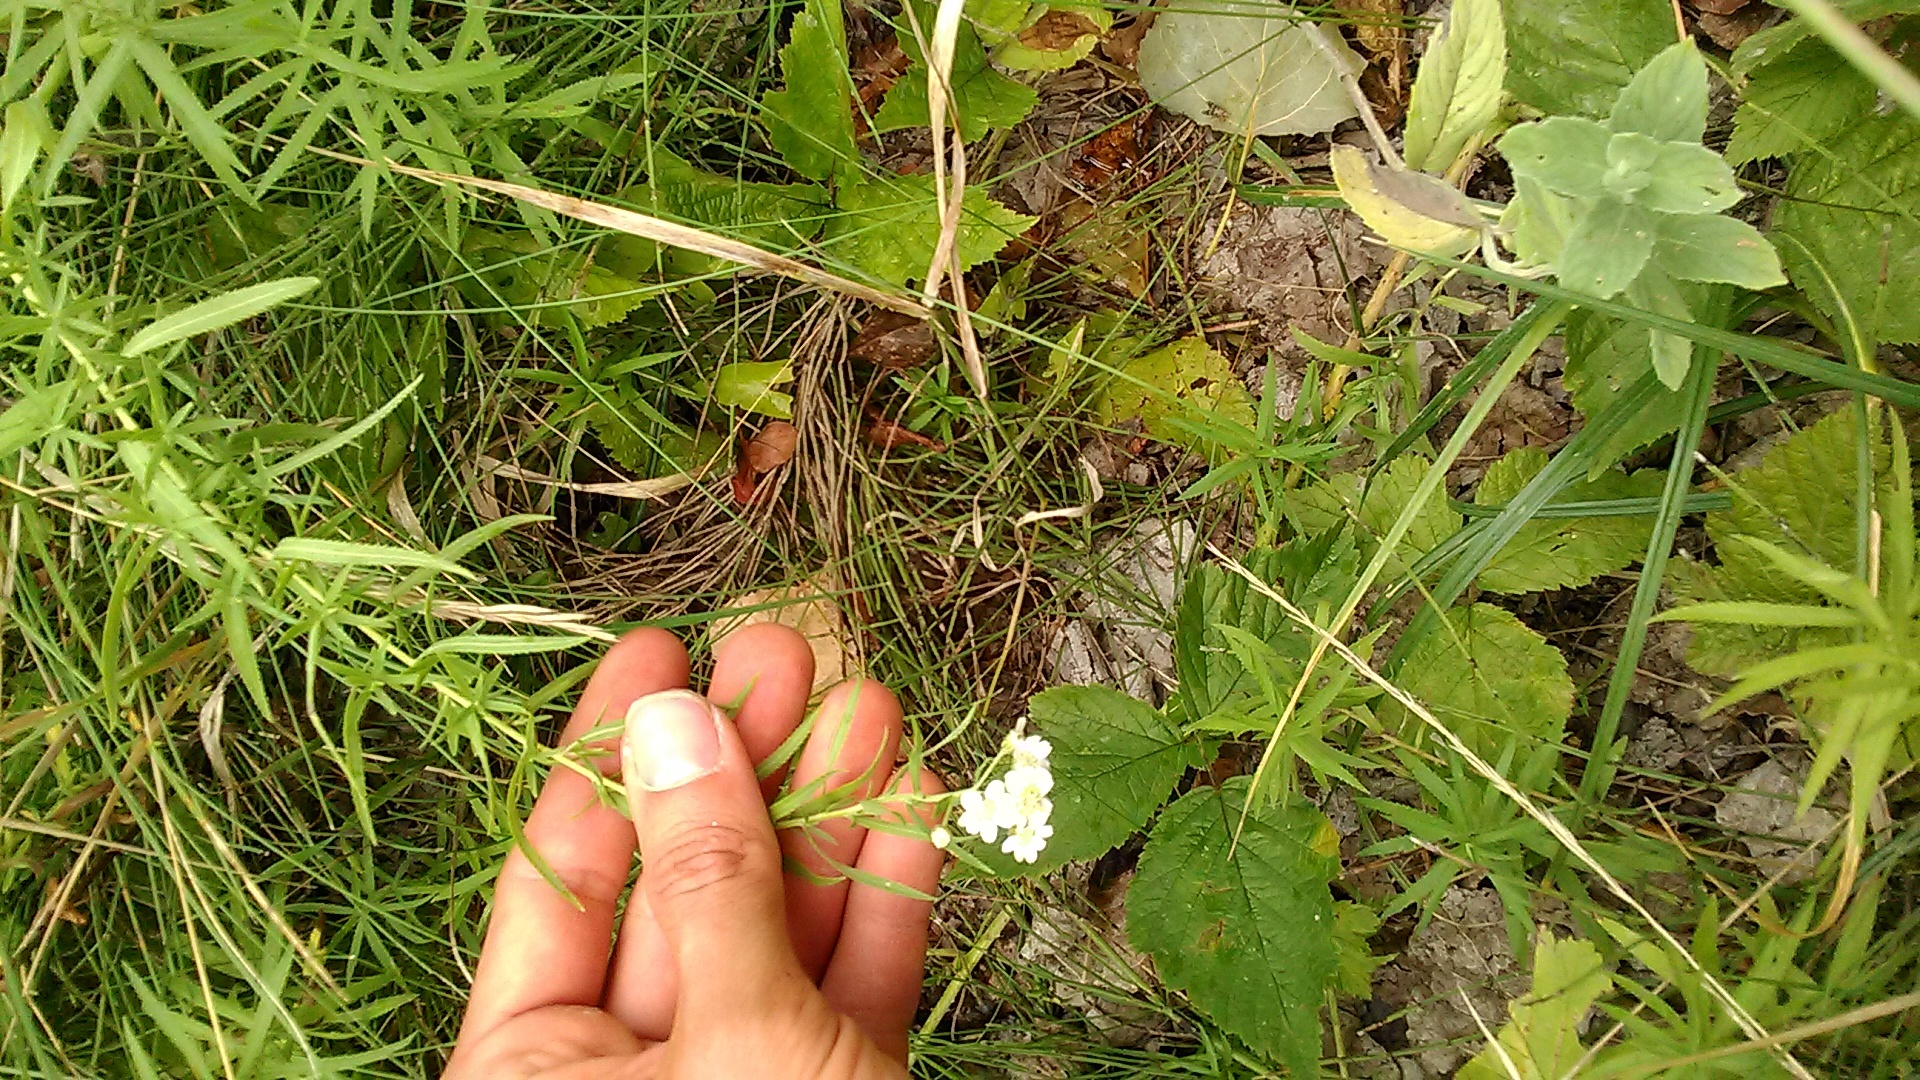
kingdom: Plantae
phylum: Tracheophyta
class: Magnoliopsida
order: Asterales
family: Asteraceae
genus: Achillea
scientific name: Achillea salicifolia
